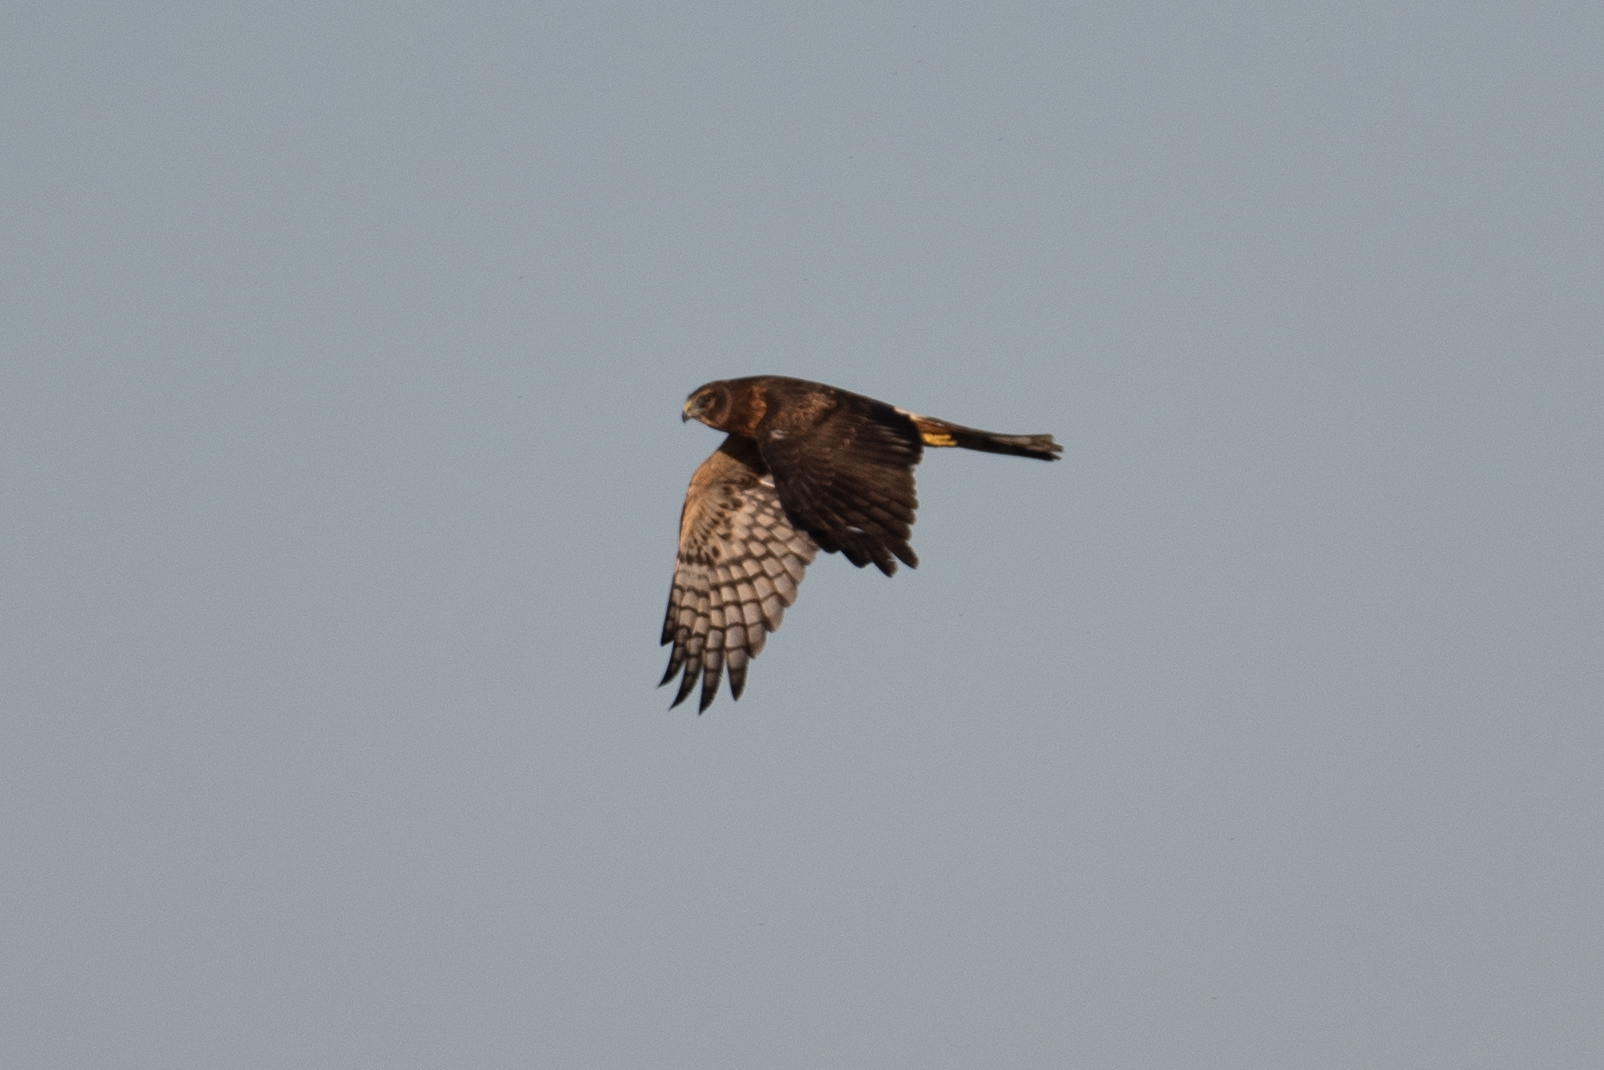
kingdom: Animalia
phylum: Chordata
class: Aves
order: Accipitriformes
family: Accipitridae
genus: Circus
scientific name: Circus cyaneus
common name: Hen harrier
